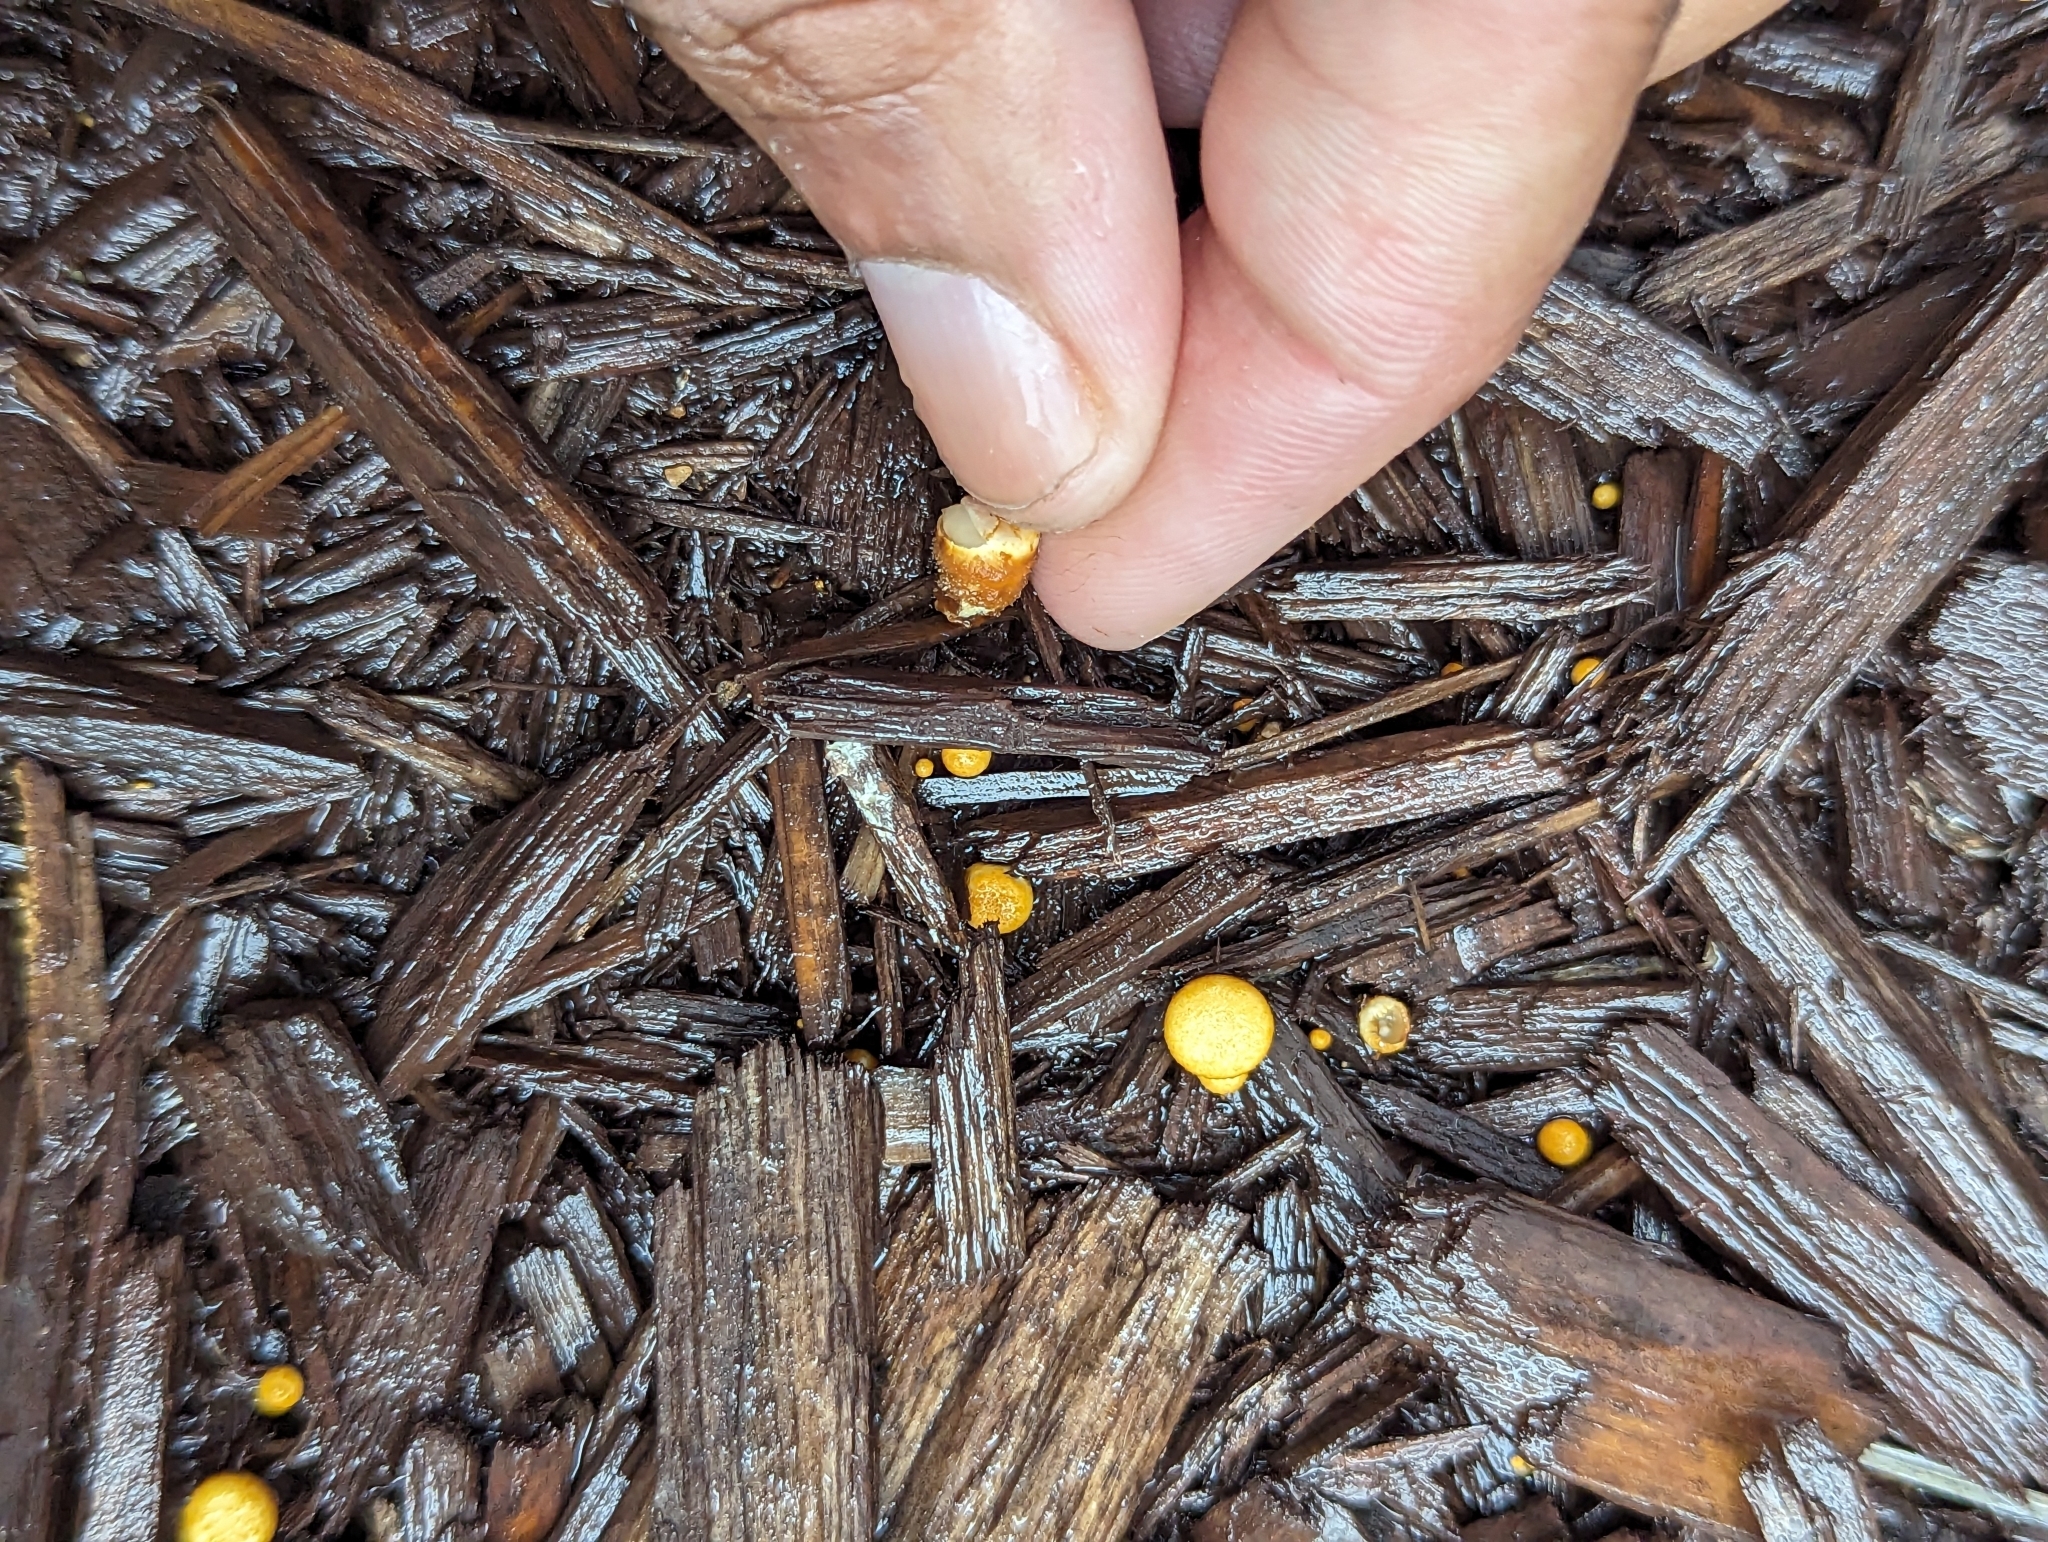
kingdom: Fungi
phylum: Basidiomycota
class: Agaricomycetes
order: Agaricales
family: Nidulariaceae
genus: Crucibulum
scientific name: Crucibulum laeve
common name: Common bird's nest
